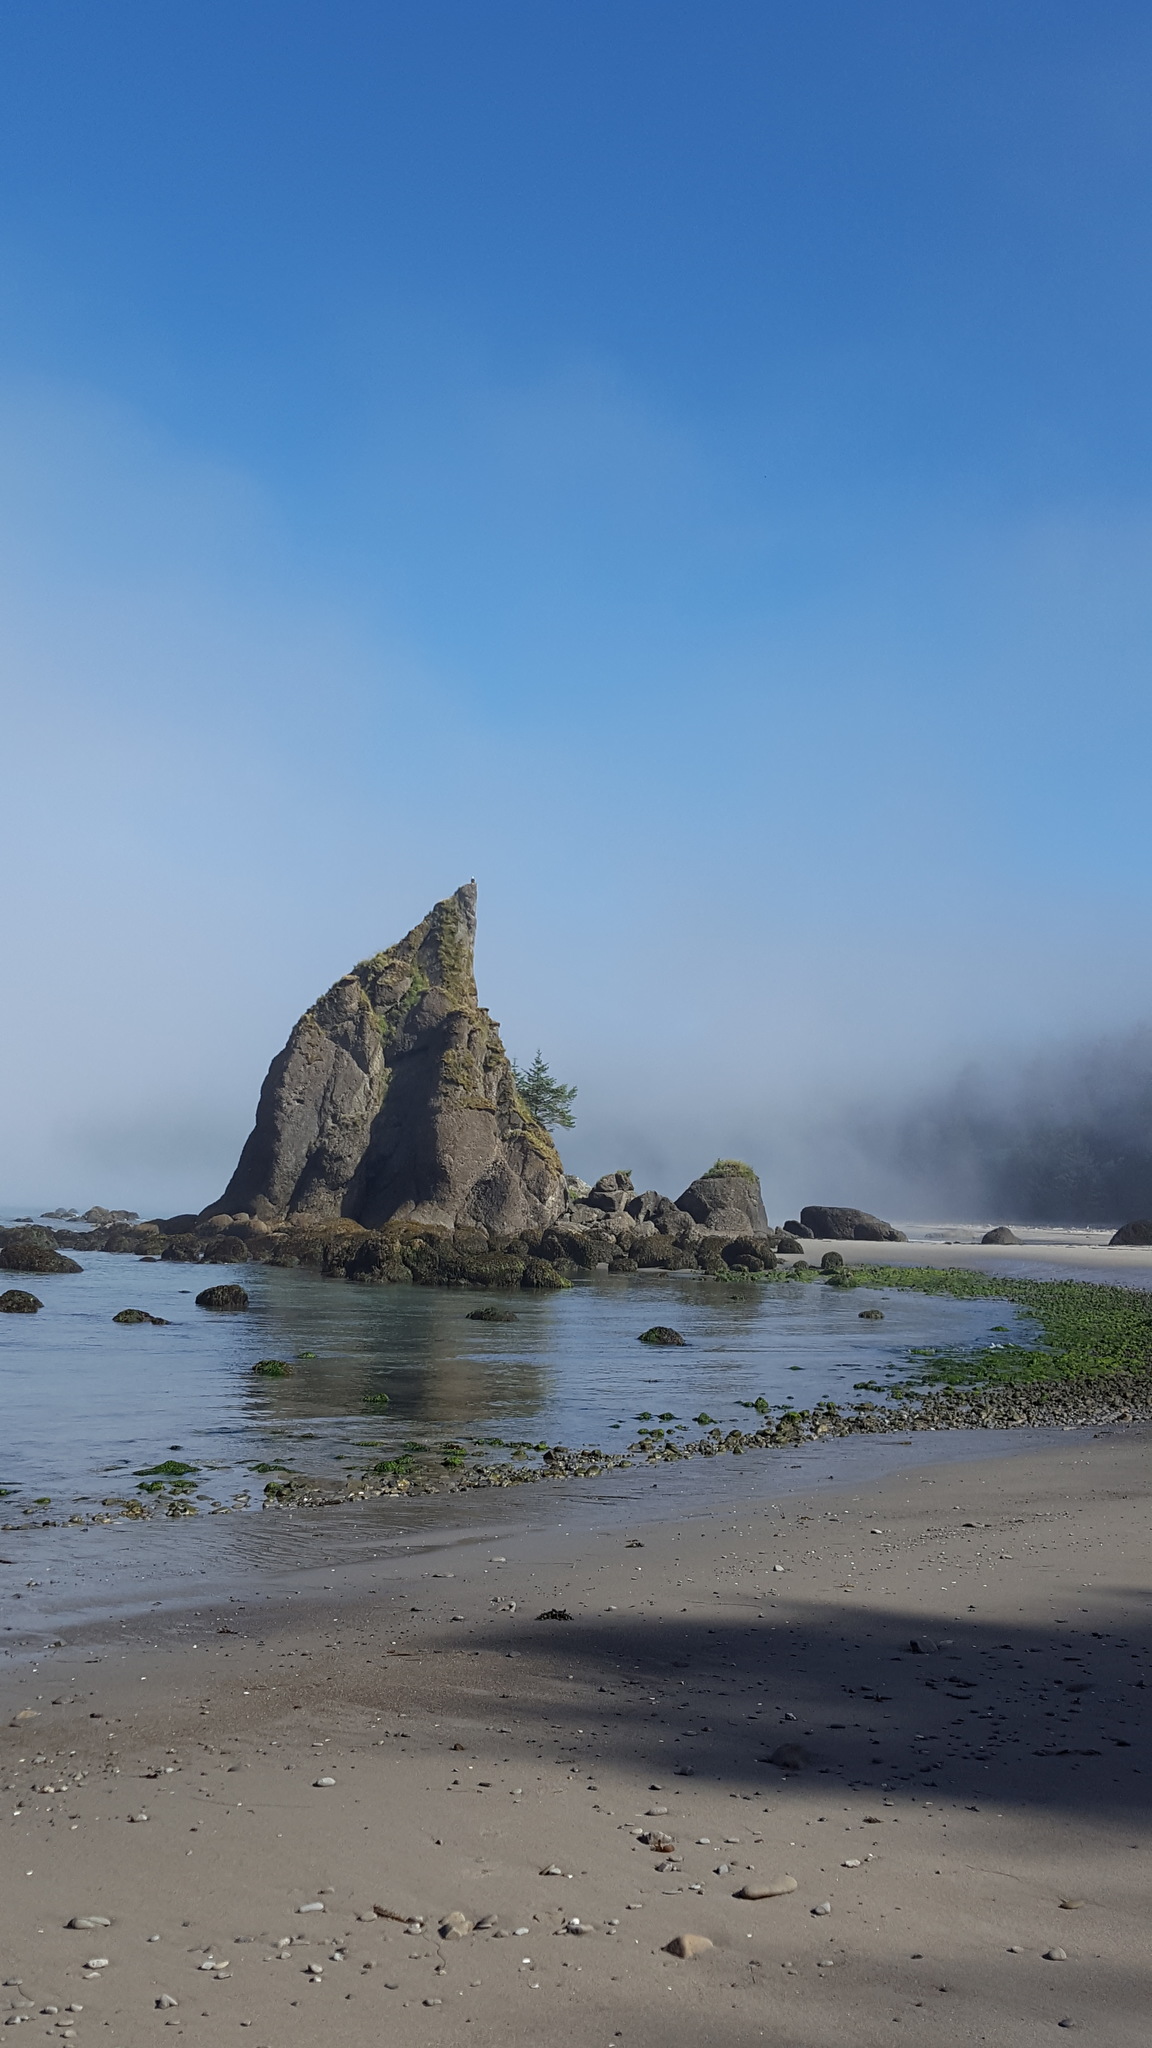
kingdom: Animalia
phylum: Chordata
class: Aves
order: Accipitriformes
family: Accipitridae
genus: Haliaeetus
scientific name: Haliaeetus leucocephalus
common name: Bald eagle
